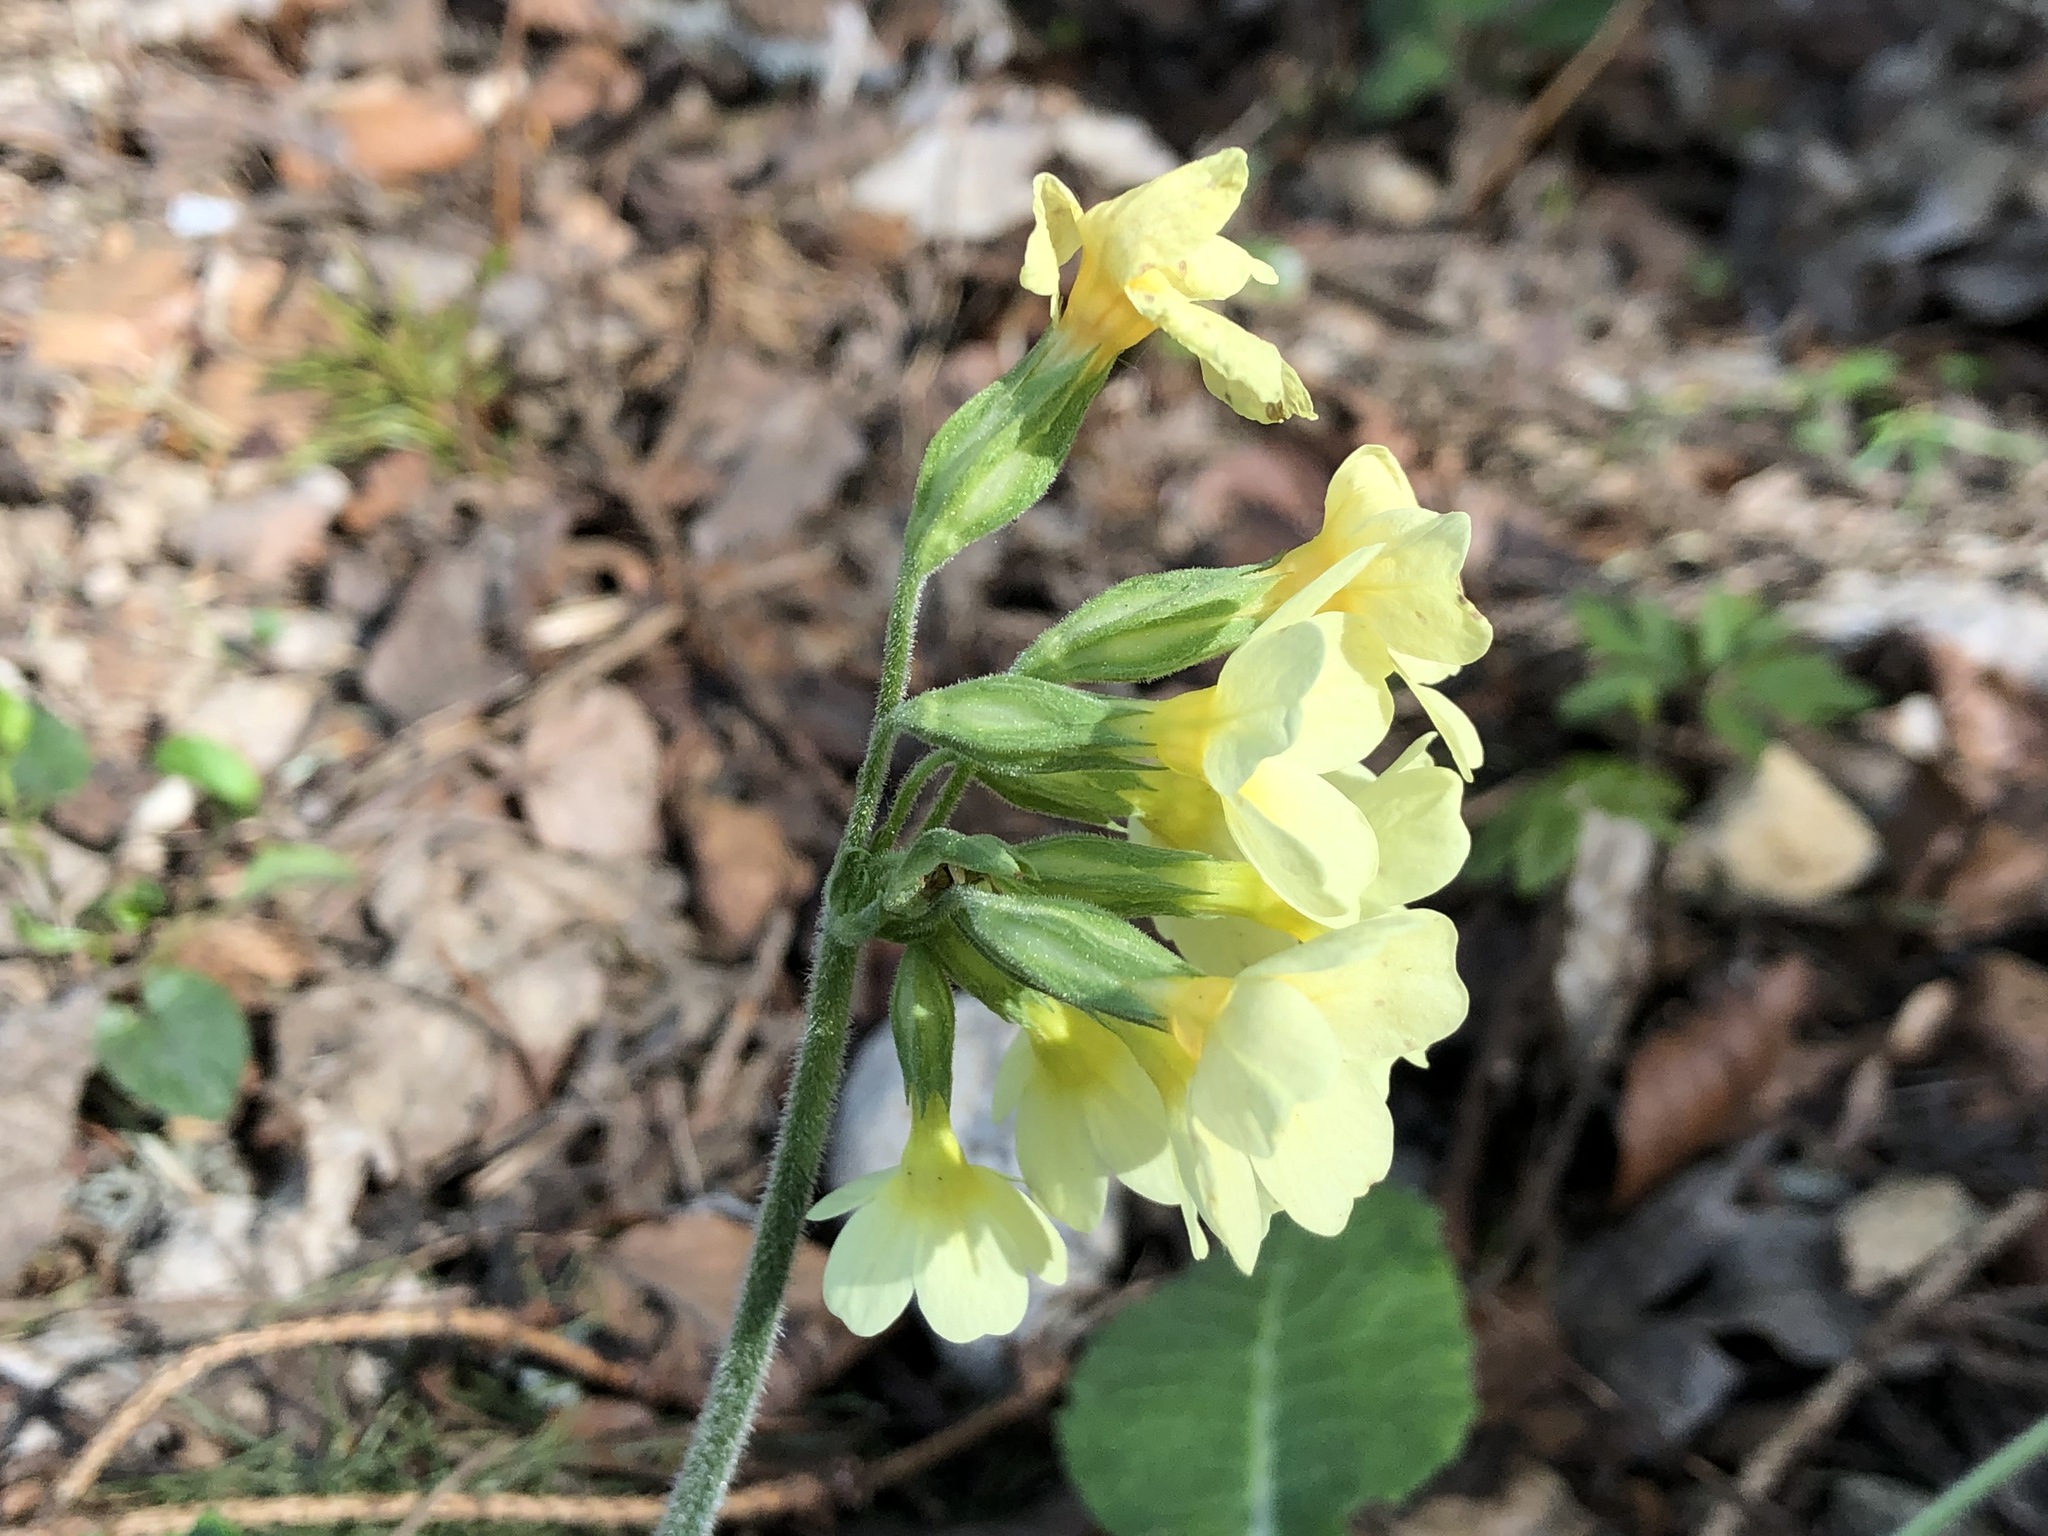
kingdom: Plantae
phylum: Tracheophyta
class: Magnoliopsida
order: Ericales
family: Primulaceae
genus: Primula
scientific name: Primula elatior
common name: Oxlip
